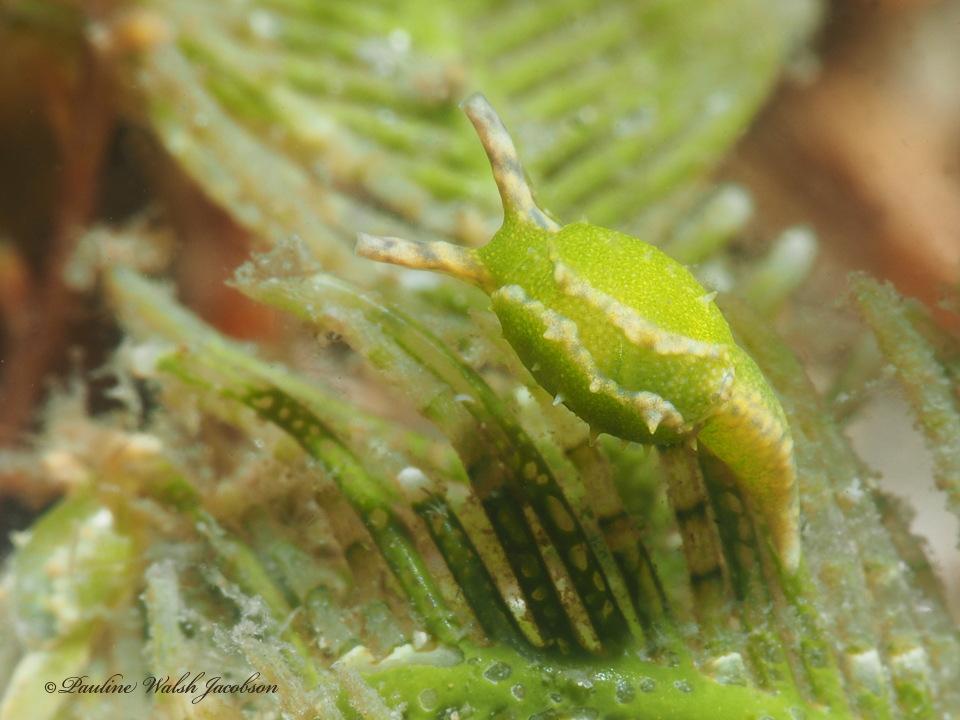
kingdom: Animalia
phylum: Mollusca
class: Gastropoda
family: Oxynoidae
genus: Oxynoe
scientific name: Oxynoe antillarum
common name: Antilles oxynoe
